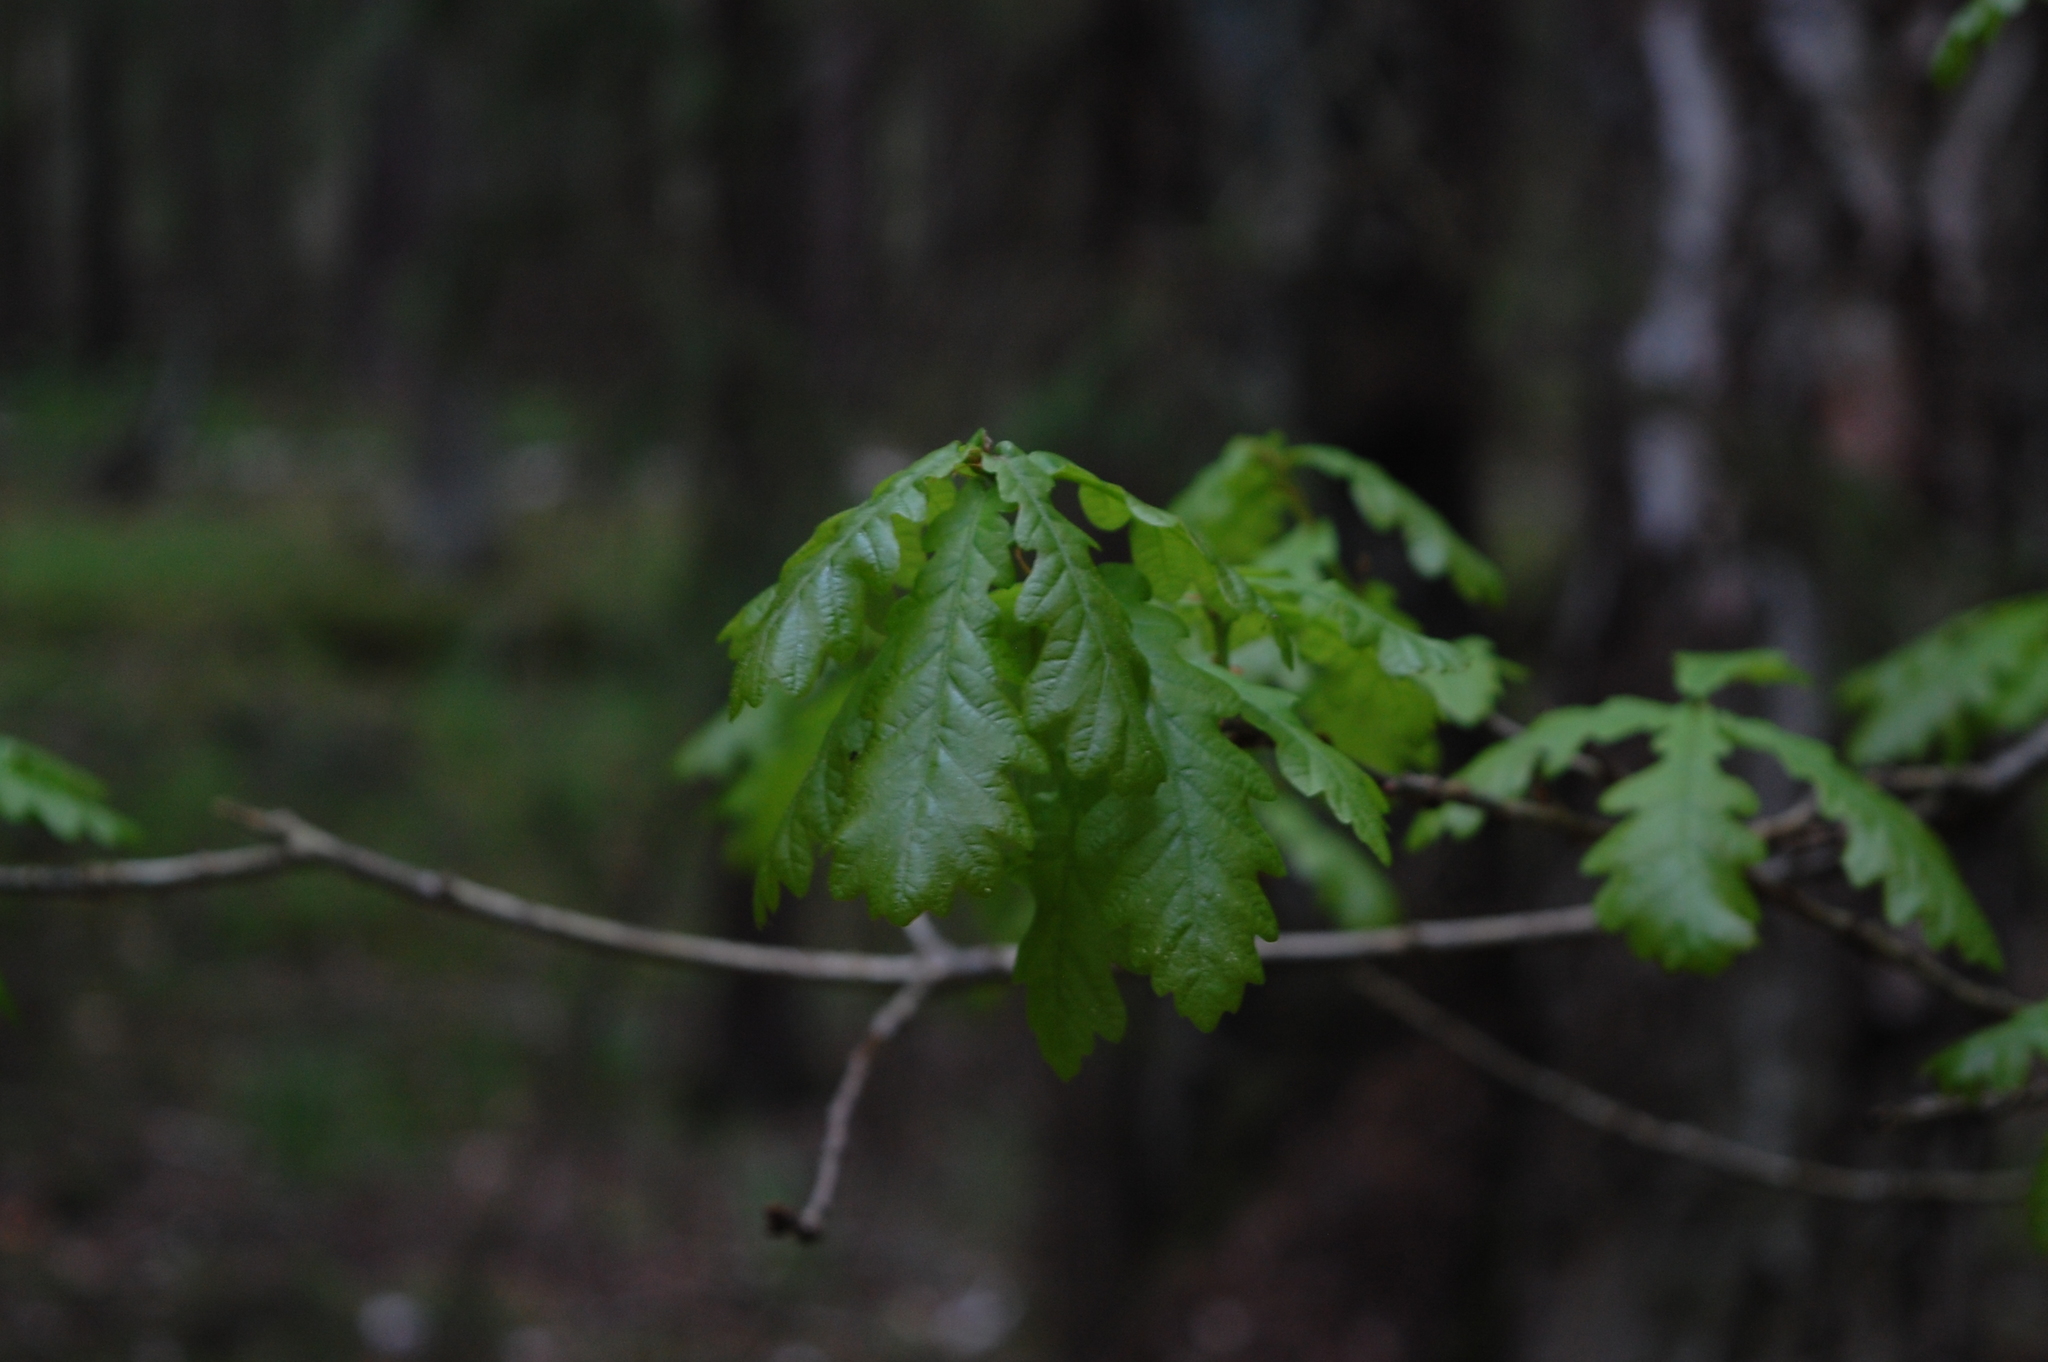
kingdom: Plantae
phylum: Tracheophyta
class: Magnoliopsida
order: Fagales
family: Fagaceae
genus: Quercus
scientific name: Quercus robur
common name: Pedunculate oak
